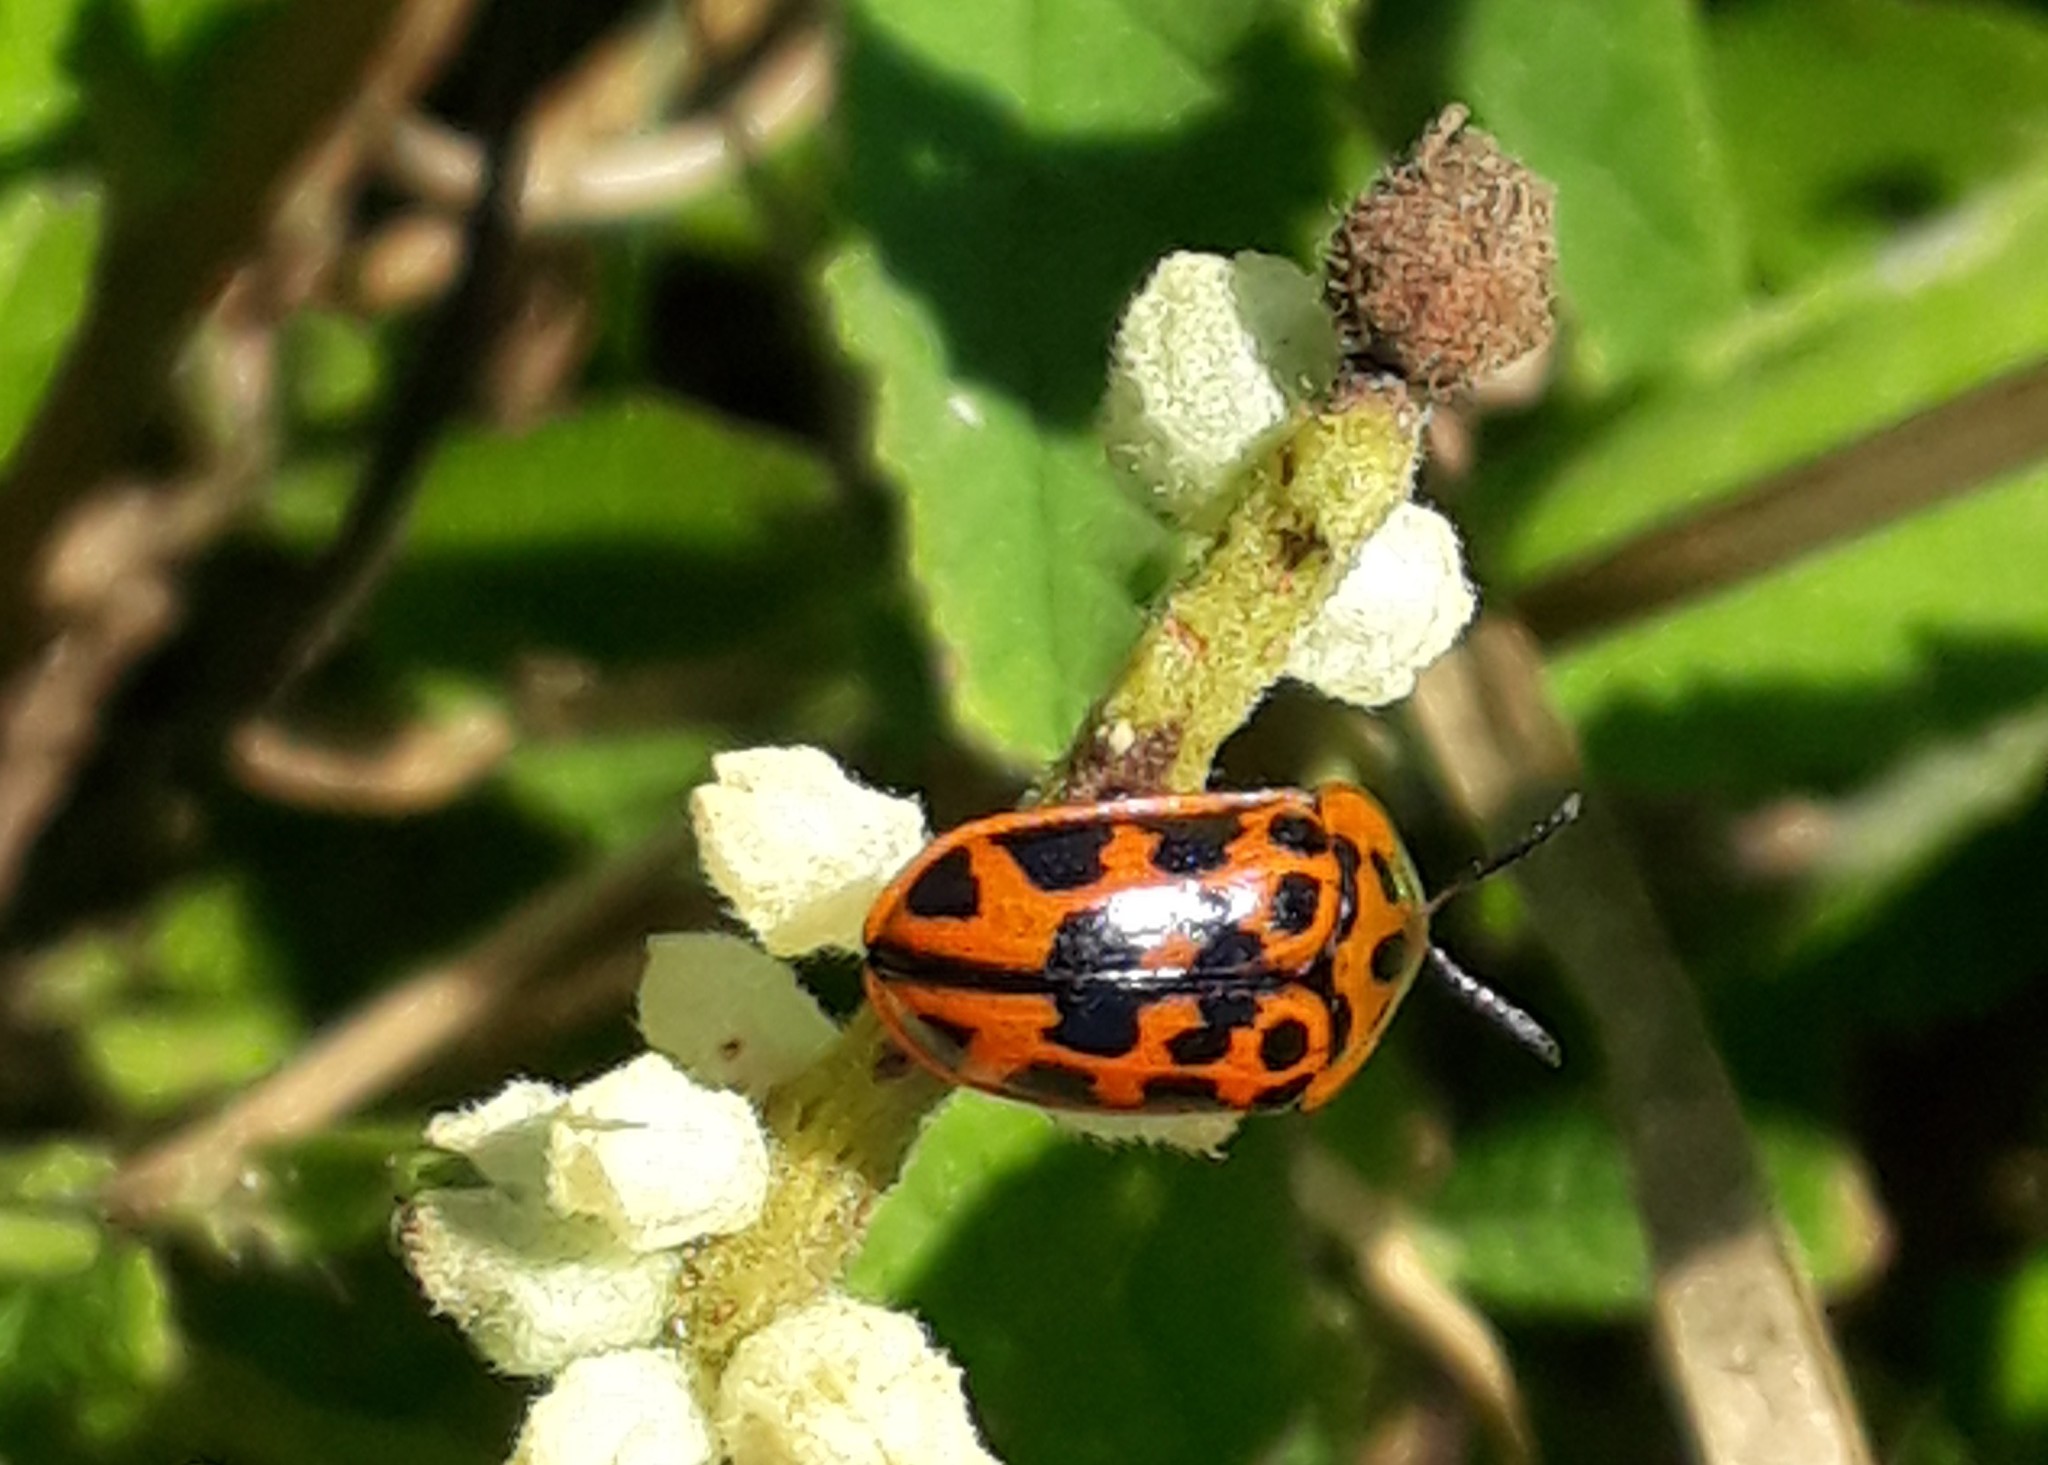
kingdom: Animalia
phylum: Arthropoda
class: Insecta
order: Coleoptera
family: Chrysomelidae
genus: Eurypedus
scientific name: Eurypedus peltoides
